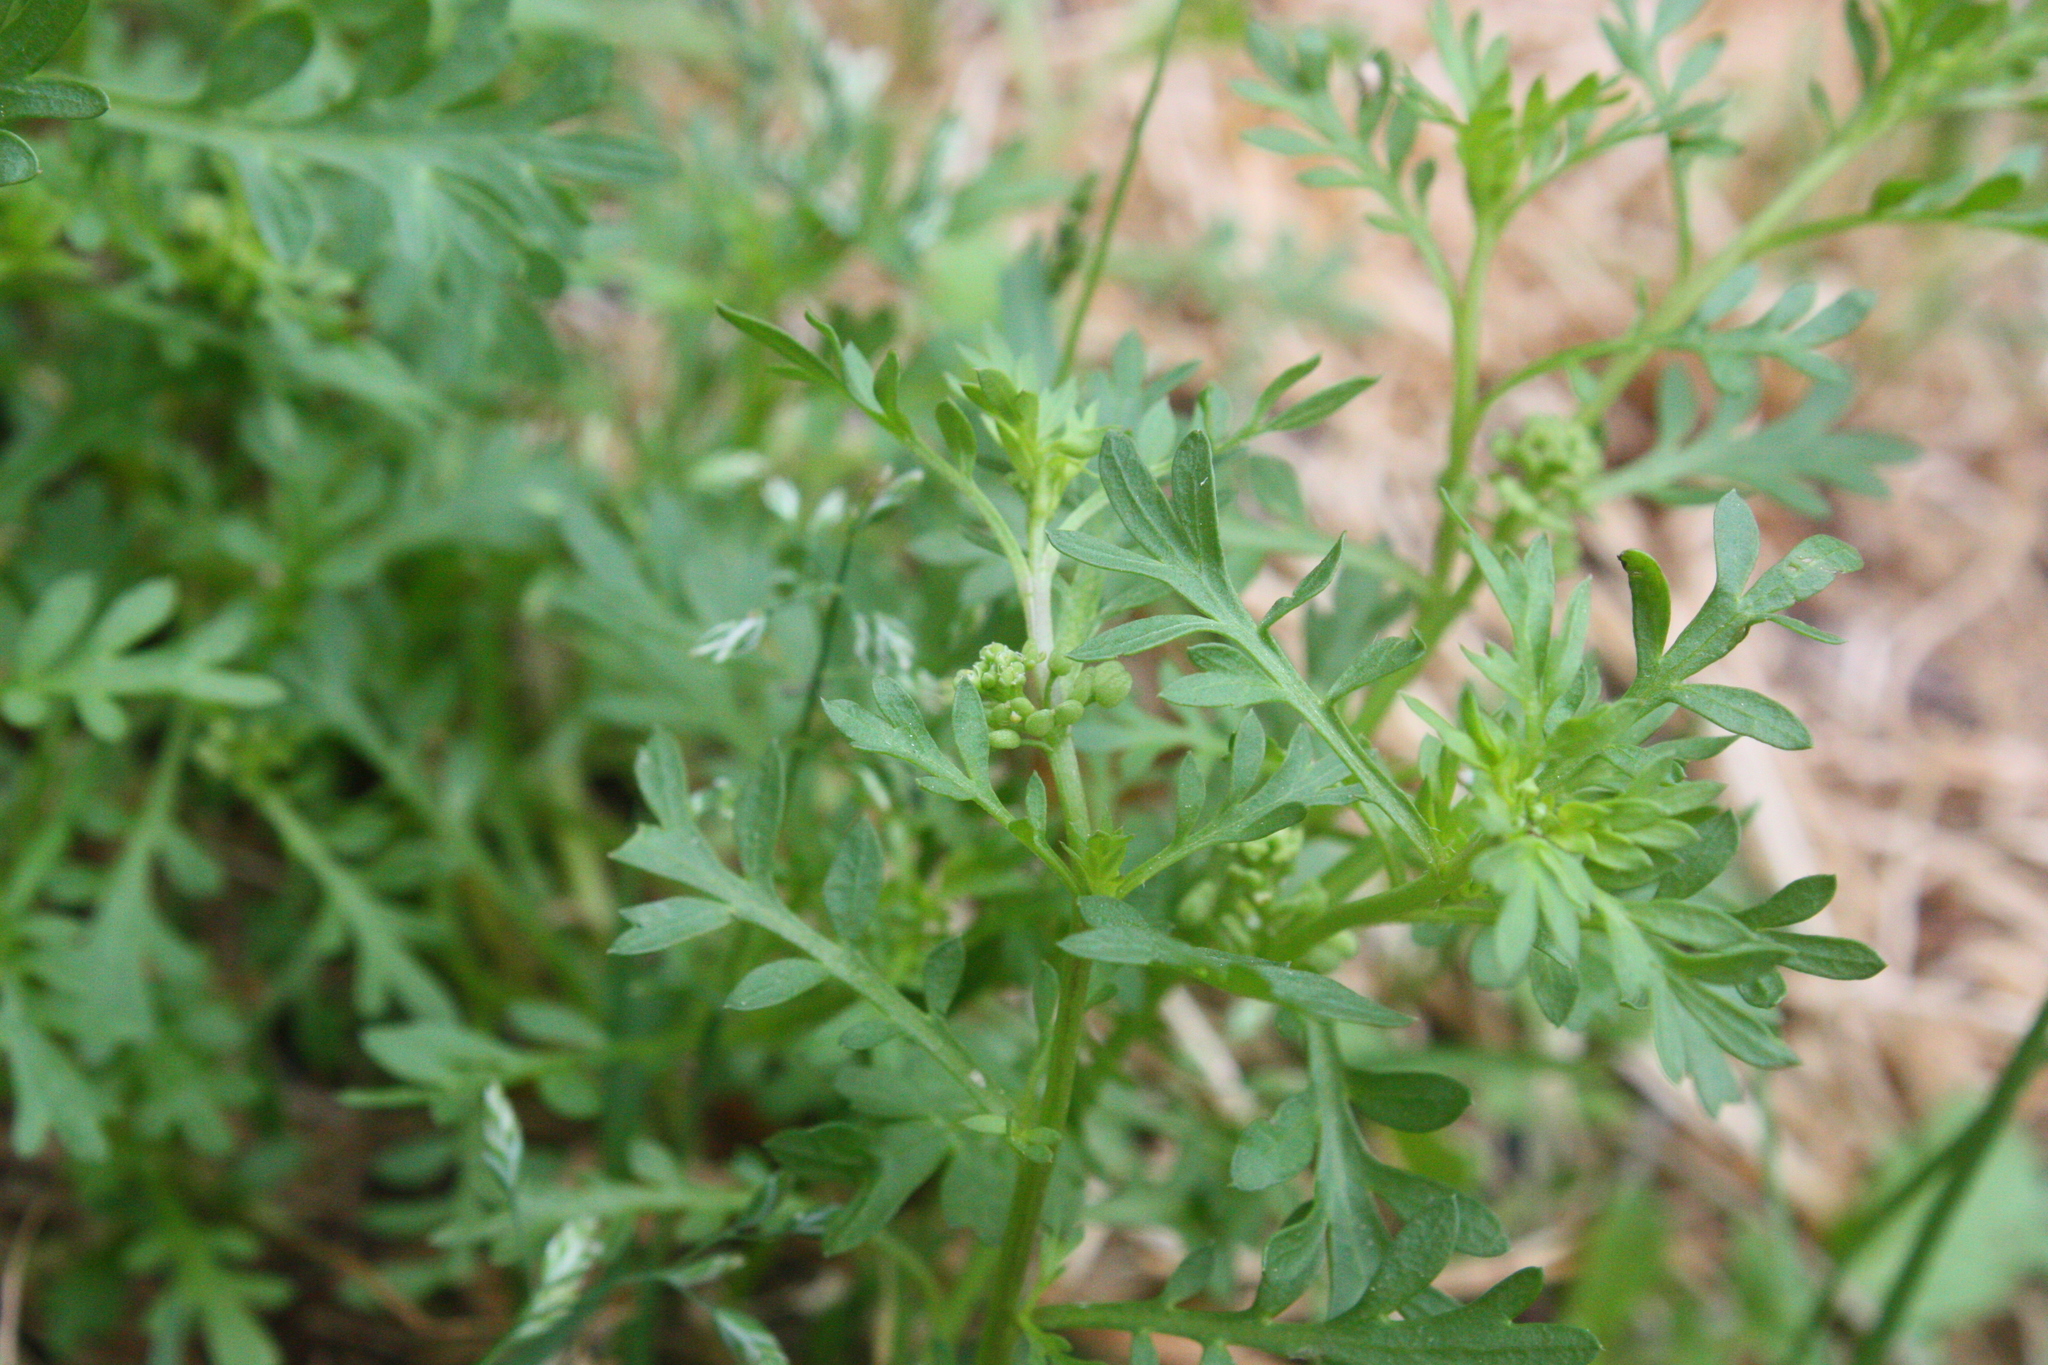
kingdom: Plantae
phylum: Tracheophyta
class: Magnoliopsida
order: Brassicales
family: Brassicaceae
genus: Lepidium
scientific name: Lepidium didymum
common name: Lesser swinecress
